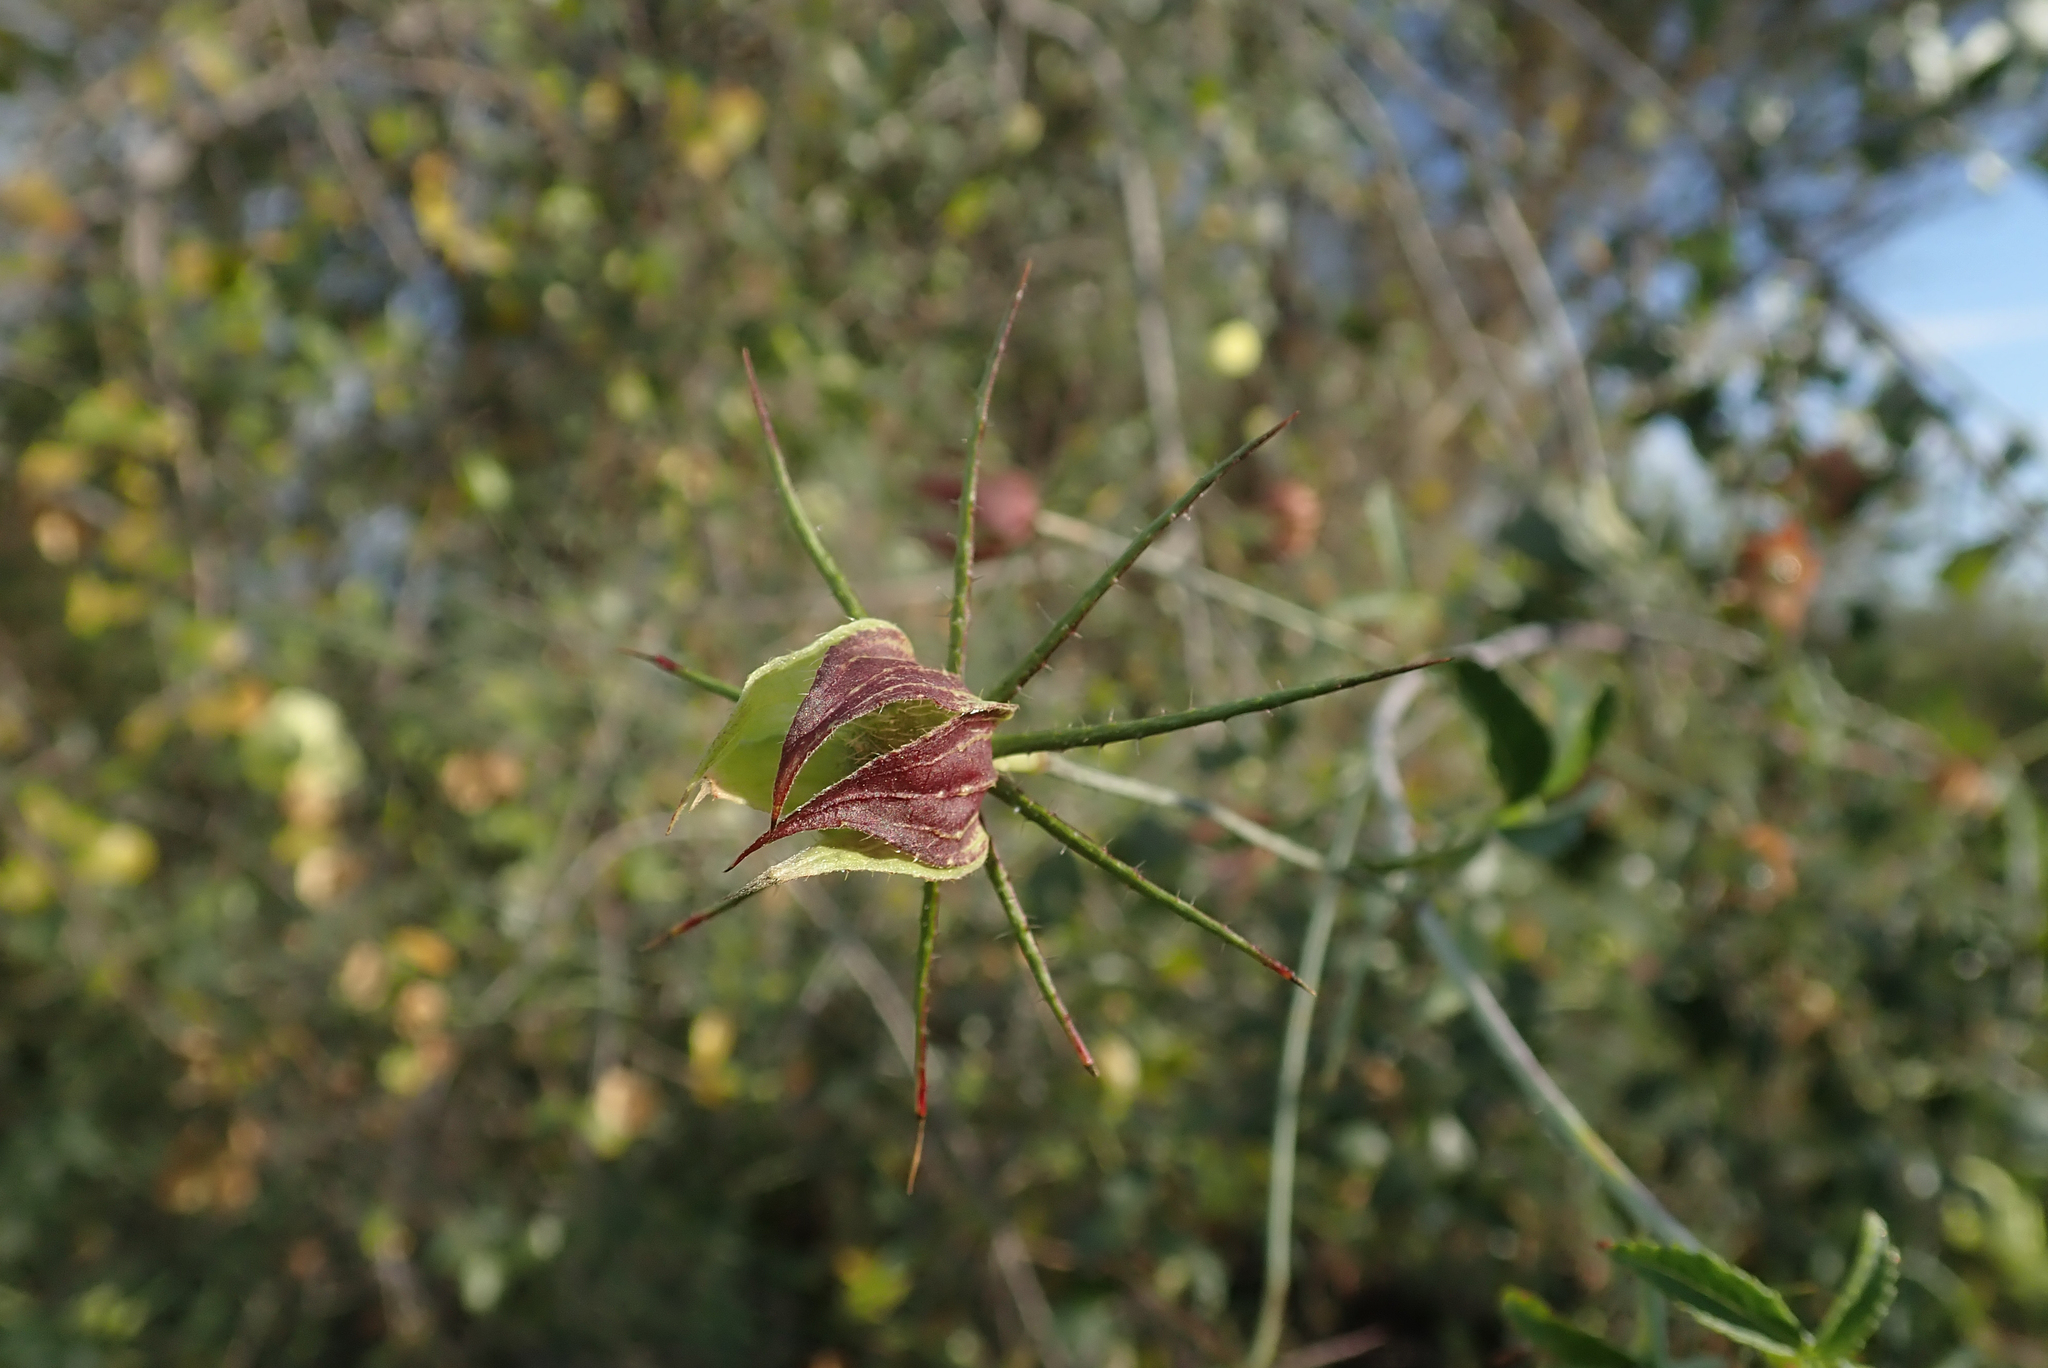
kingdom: Plantae
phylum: Tracheophyta
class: Magnoliopsida
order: Malvales
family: Malvaceae
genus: Hibiscus
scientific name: Hibiscus caesius
